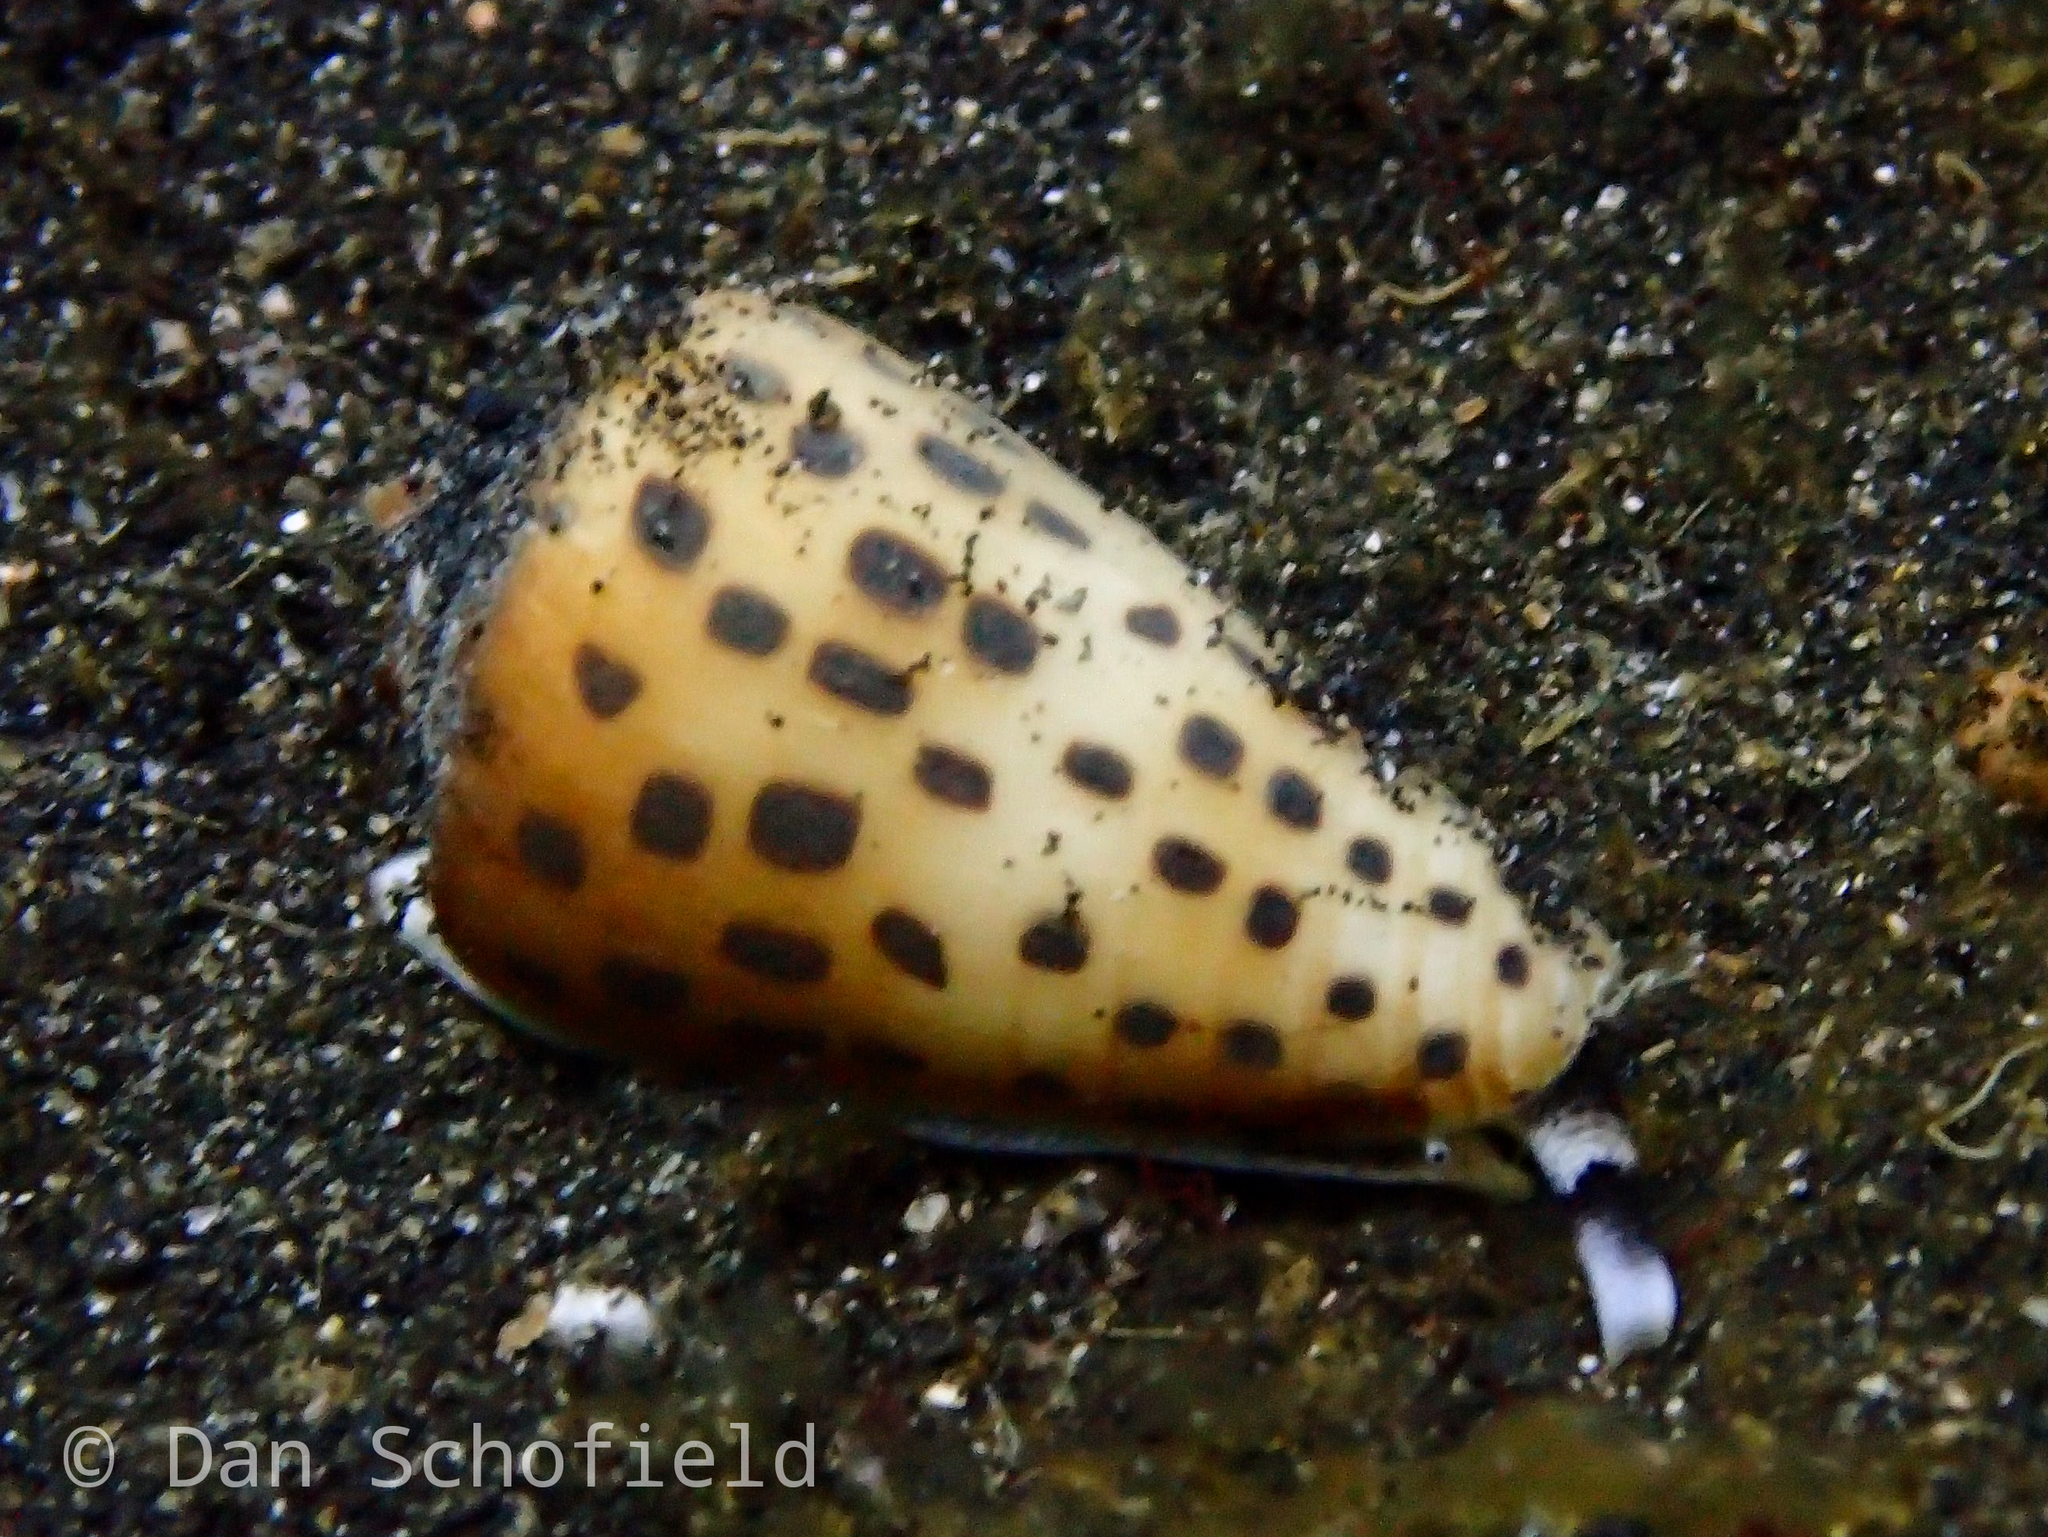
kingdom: Animalia
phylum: Mollusca
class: Gastropoda
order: Neogastropoda
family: Conidae
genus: Conus
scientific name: Conus eburneus
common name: Ivory cone
